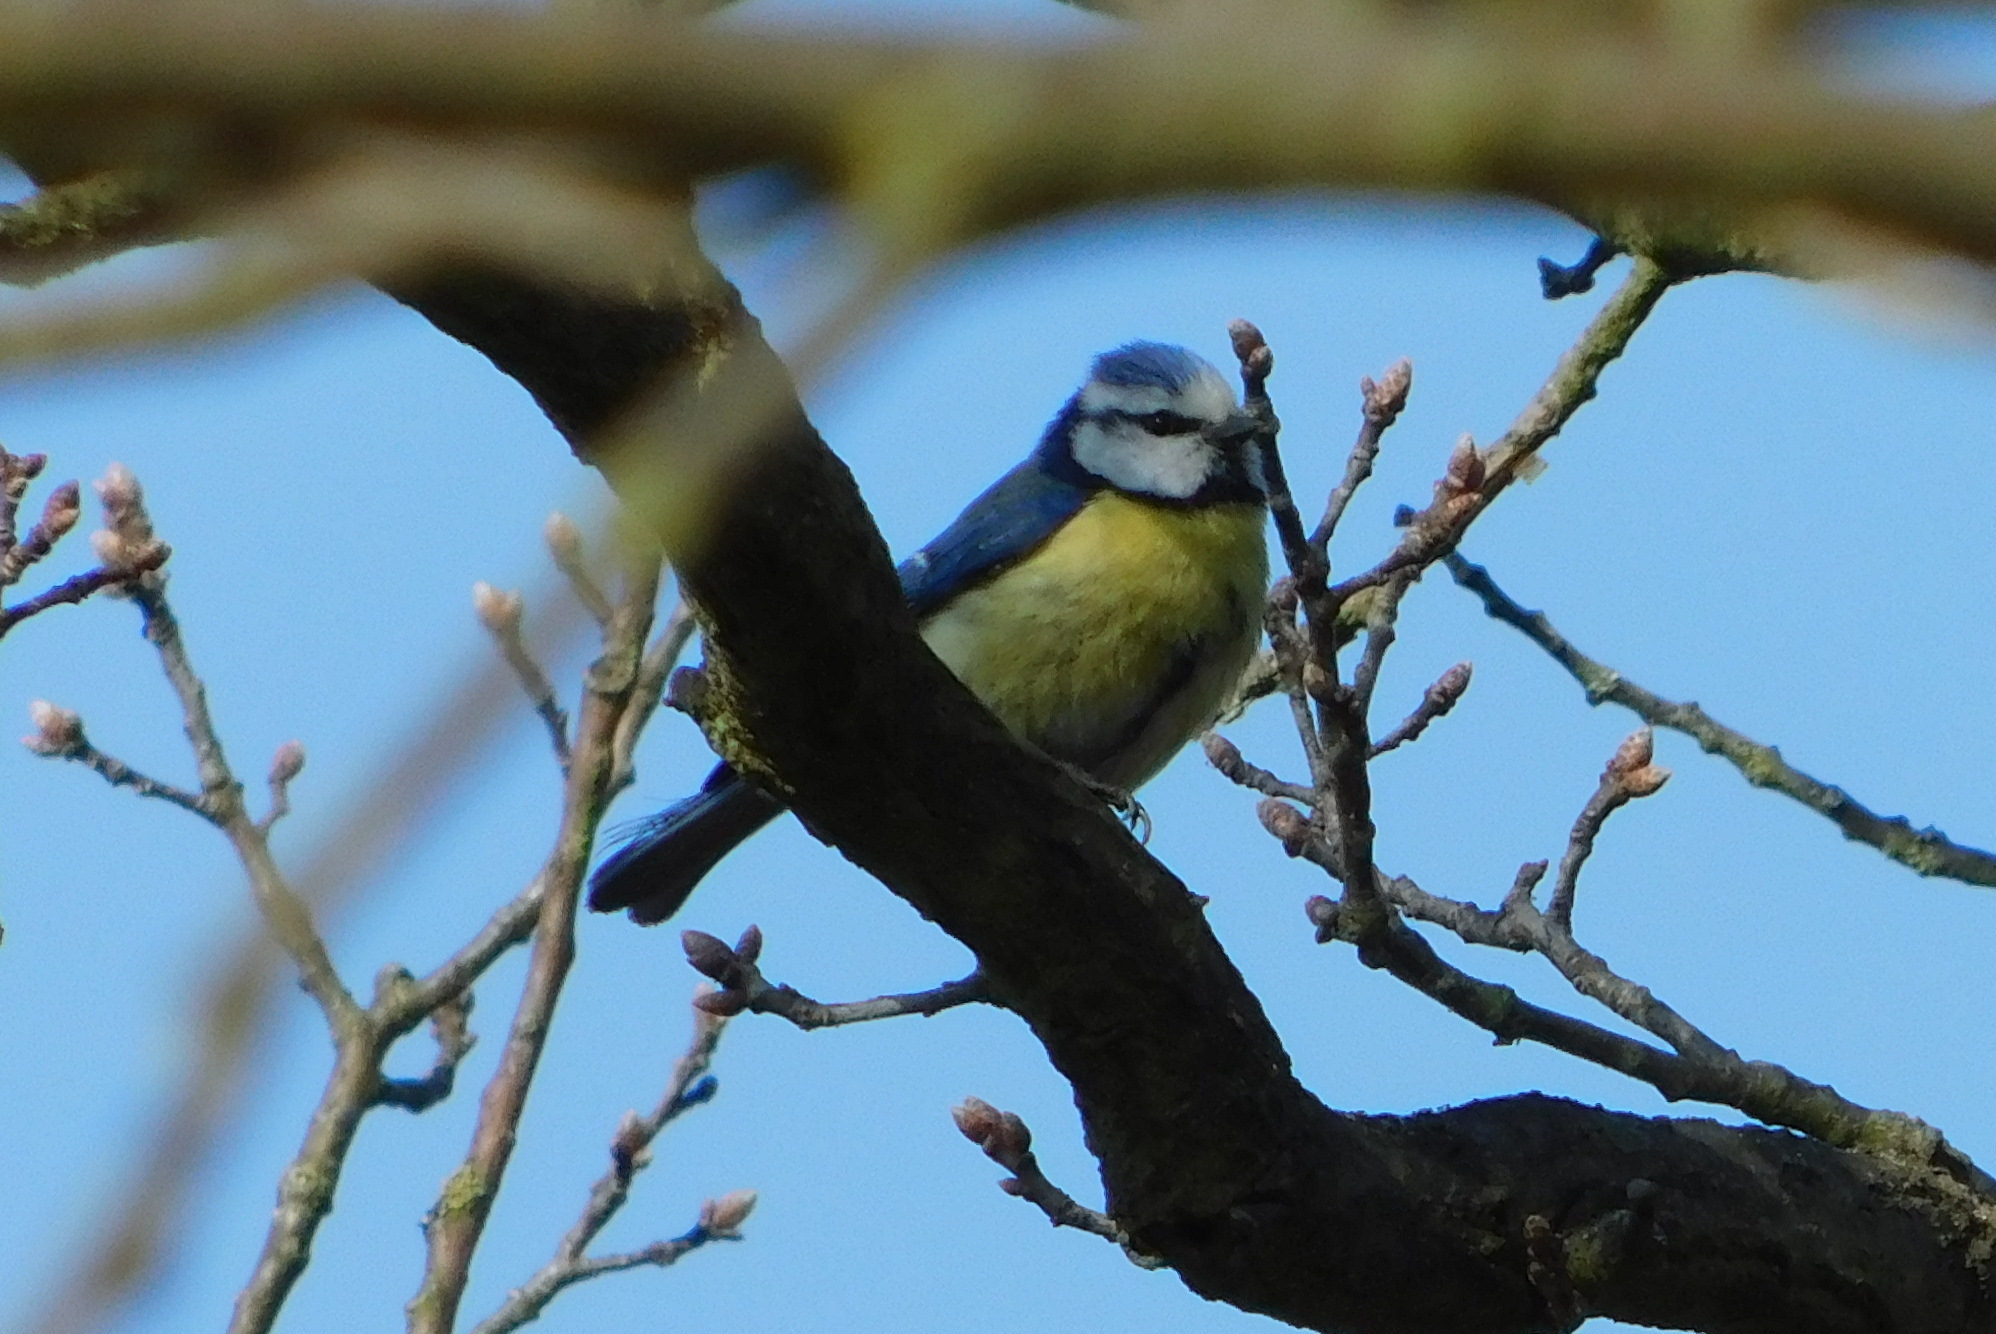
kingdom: Animalia
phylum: Chordata
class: Aves
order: Passeriformes
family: Paridae
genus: Cyanistes
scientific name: Cyanistes caeruleus
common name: Eurasian blue tit
